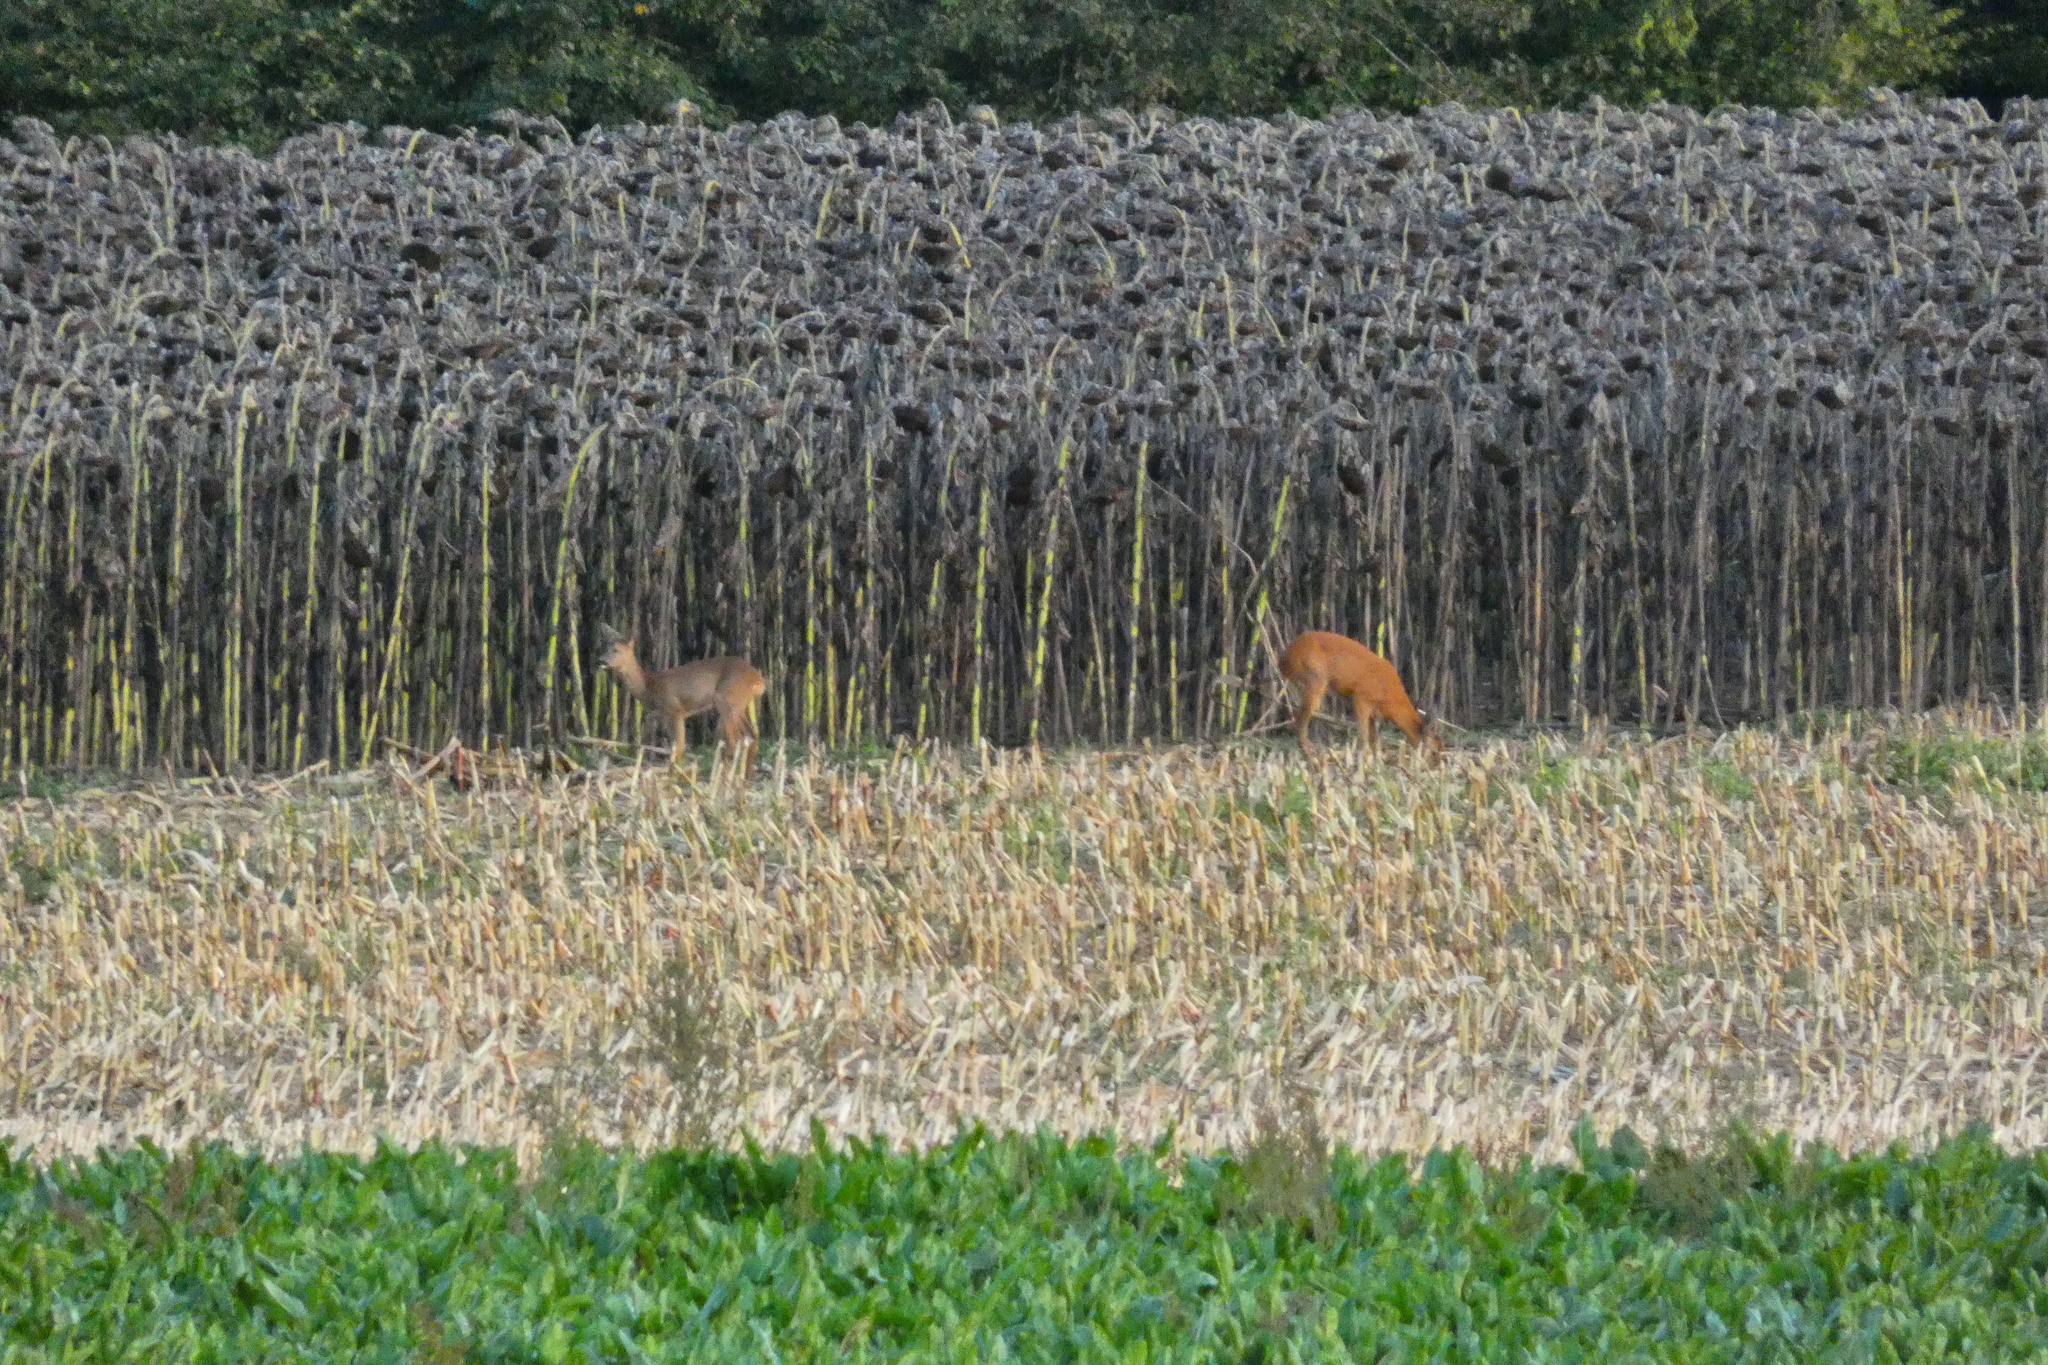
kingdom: Animalia
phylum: Chordata
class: Mammalia
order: Artiodactyla
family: Cervidae
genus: Capreolus
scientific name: Capreolus capreolus
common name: Western roe deer
